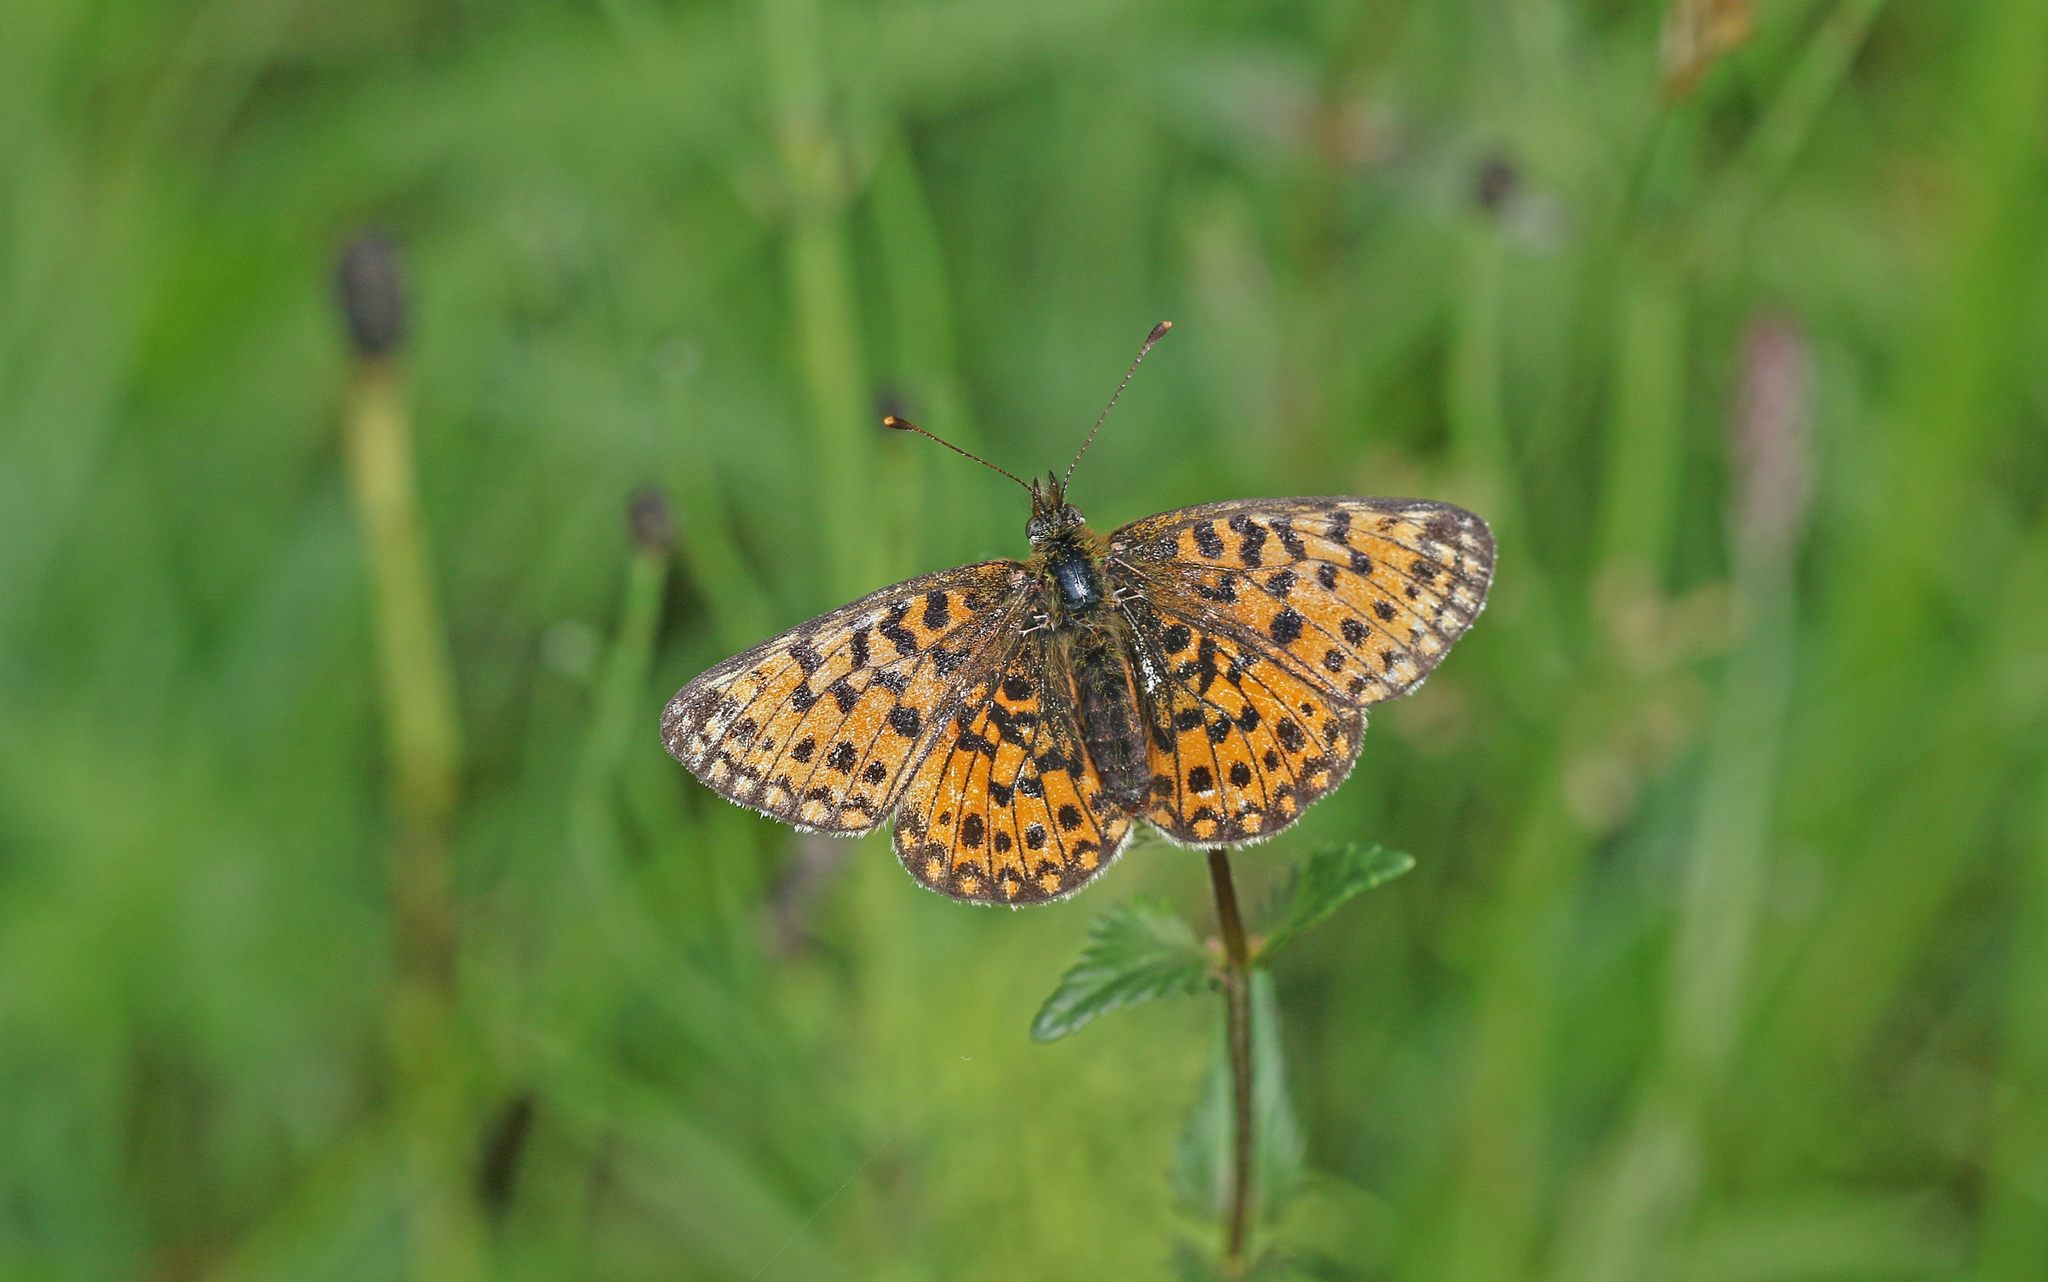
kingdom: Animalia
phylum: Arthropoda
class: Insecta
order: Lepidoptera
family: Nymphalidae
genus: Boloria
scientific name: Boloria selene
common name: Small pearl-bordered fritillary
